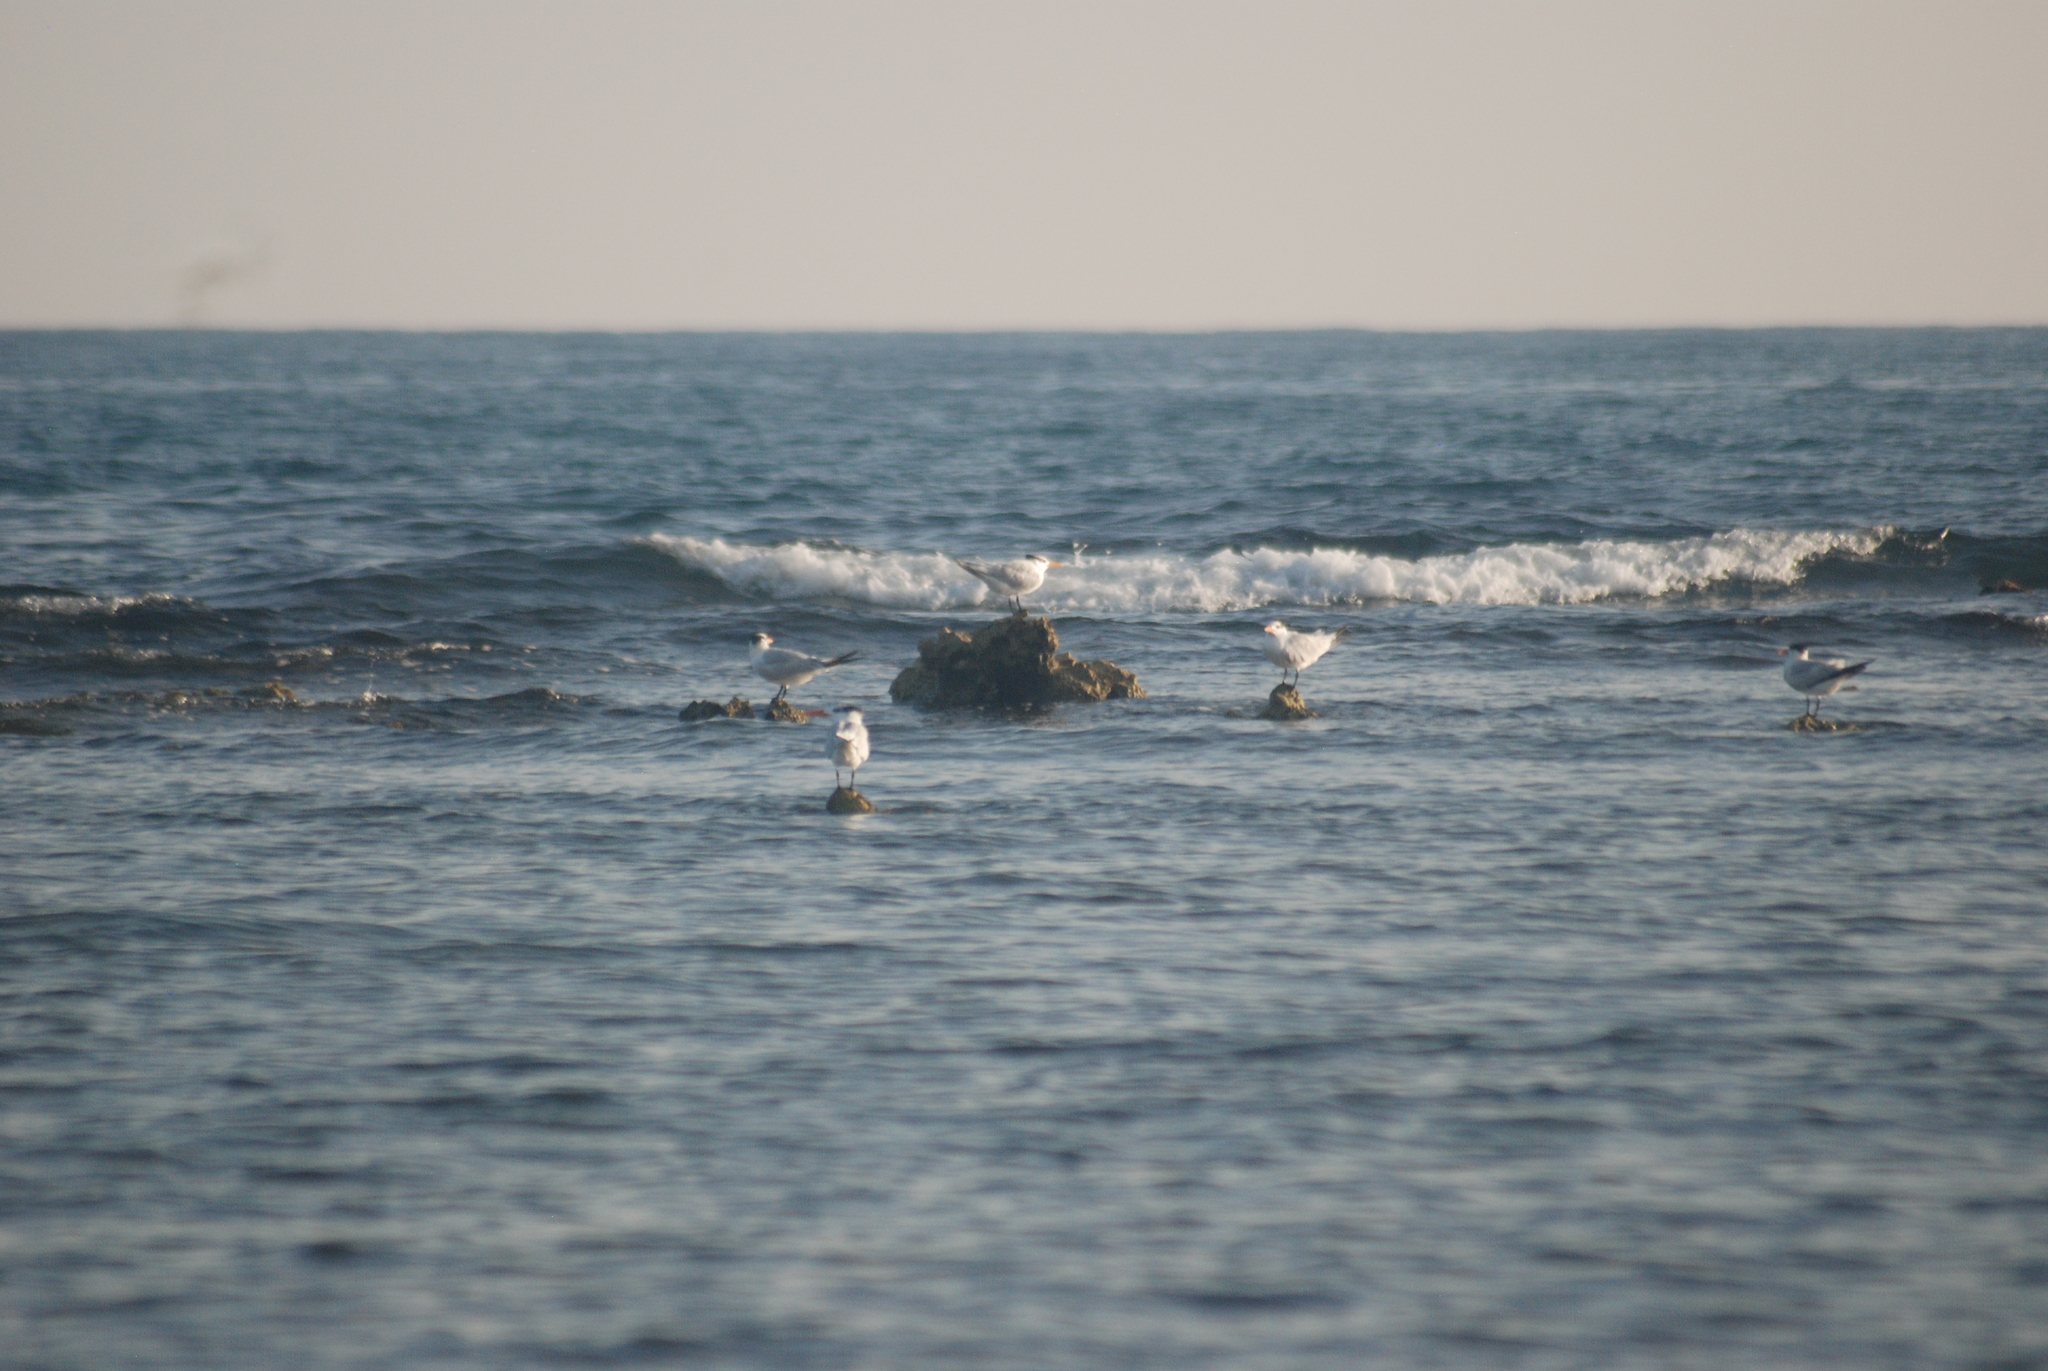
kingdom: Animalia
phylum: Chordata
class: Aves
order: Charadriiformes
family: Laridae
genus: Thalasseus
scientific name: Thalasseus maximus
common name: Royal tern
